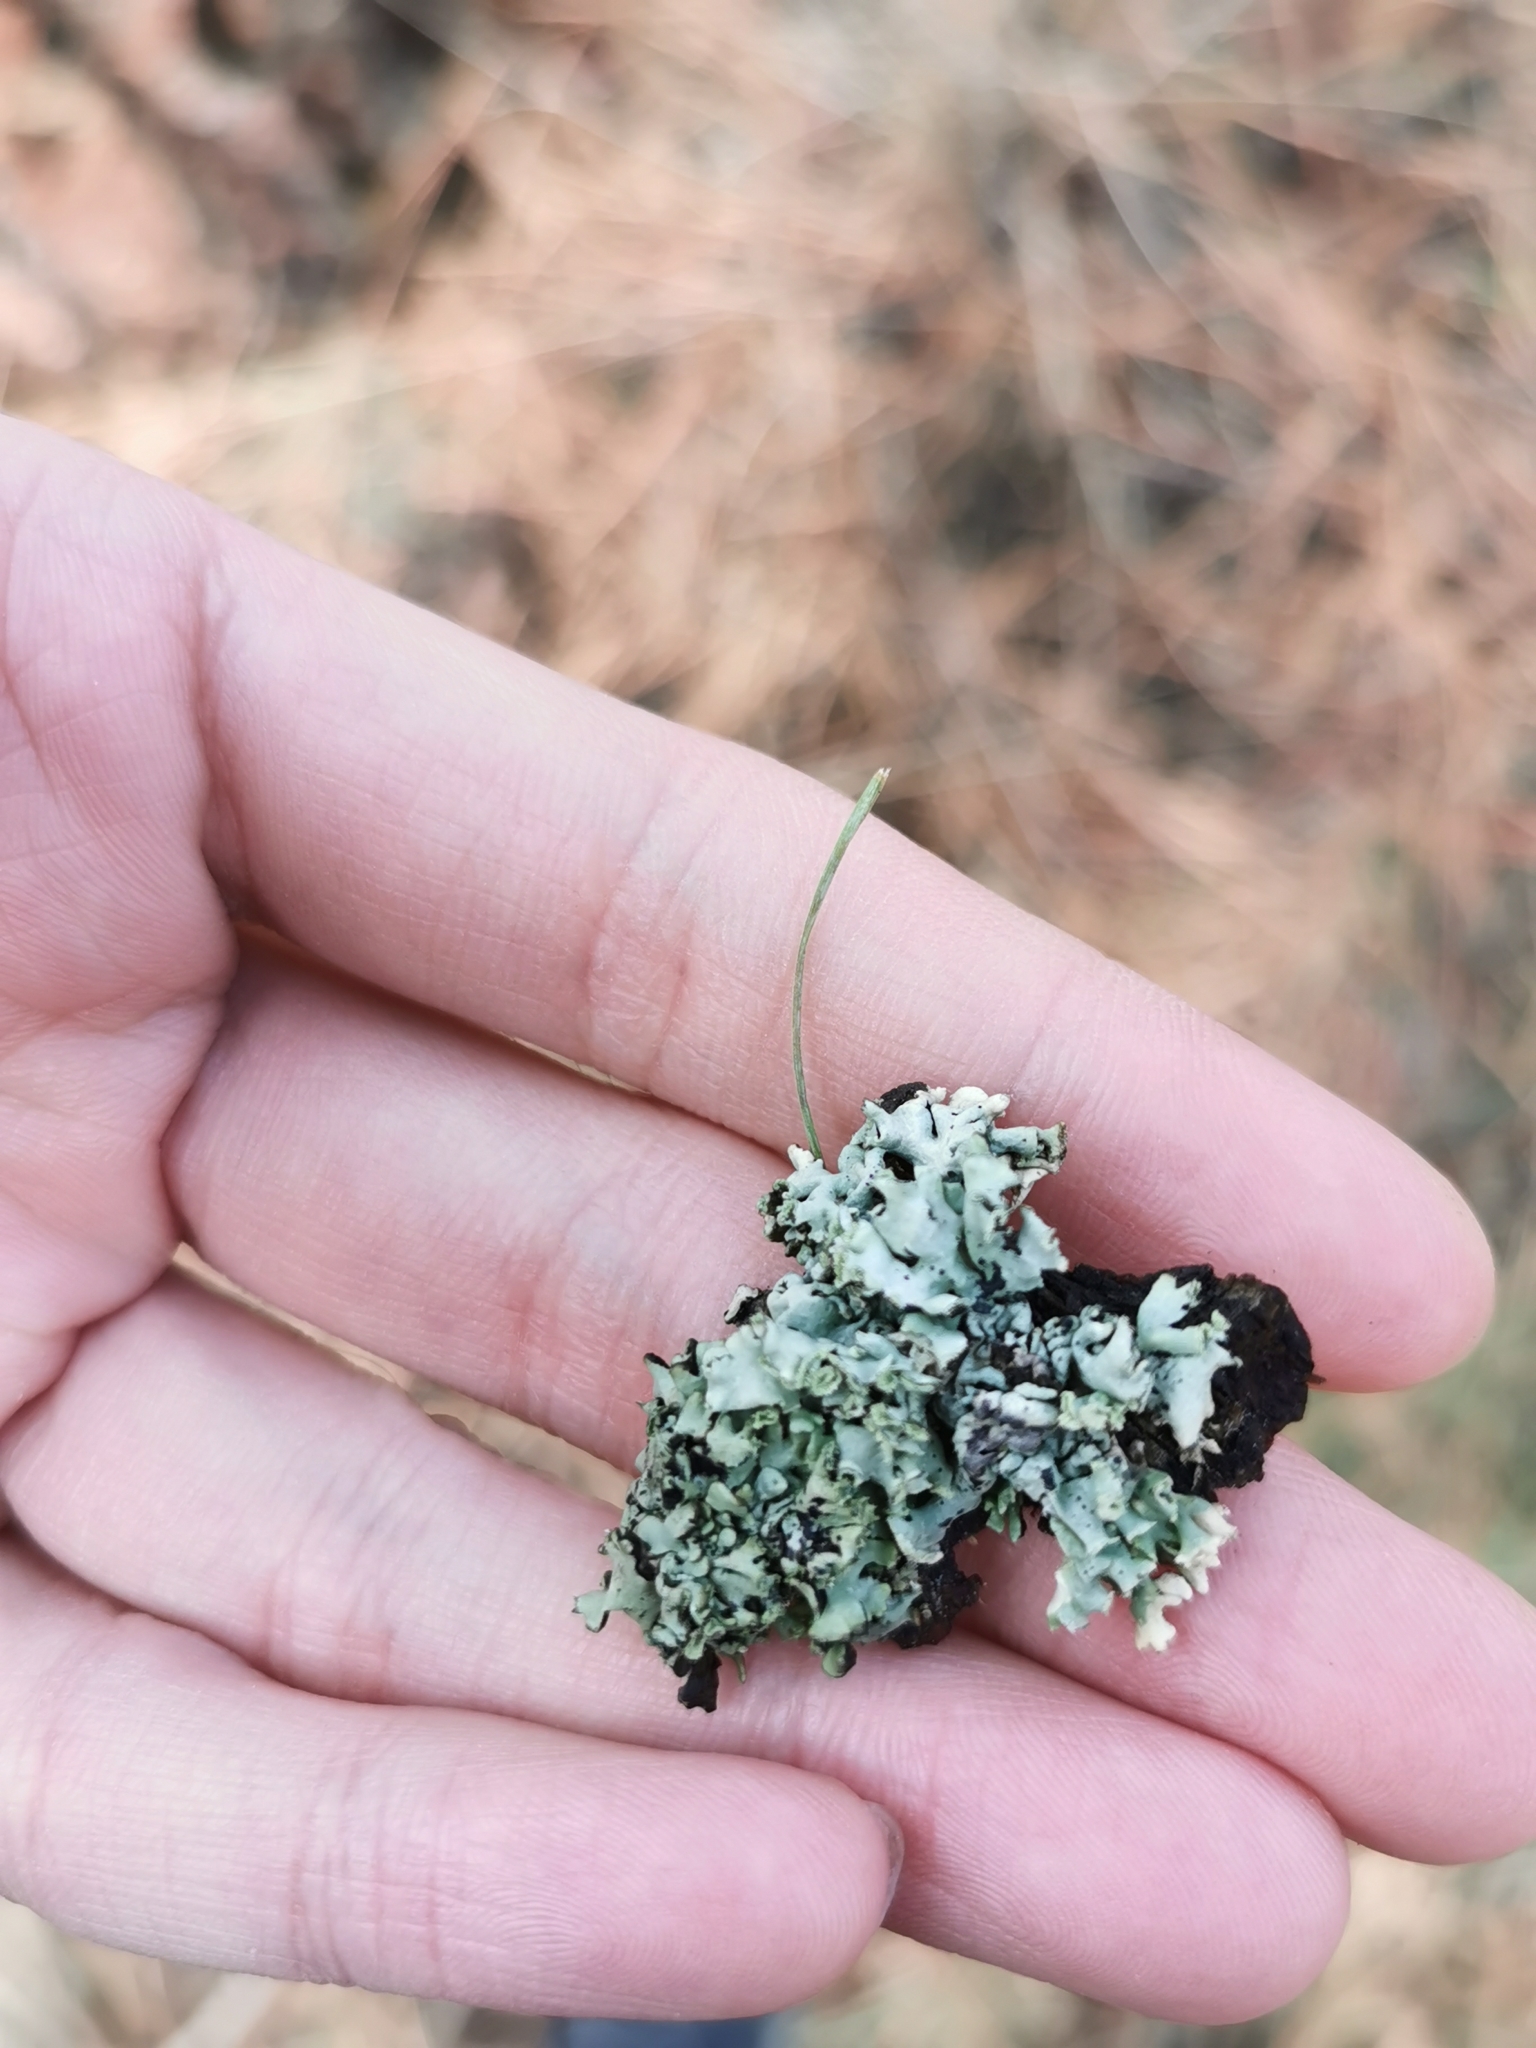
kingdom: Fungi
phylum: Ascomycota
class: Lecanoromycetes
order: Lecanorales
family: Parmeliaceae
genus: Hypogymnia
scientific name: Hypogymnia physodes
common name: Dark crottle
